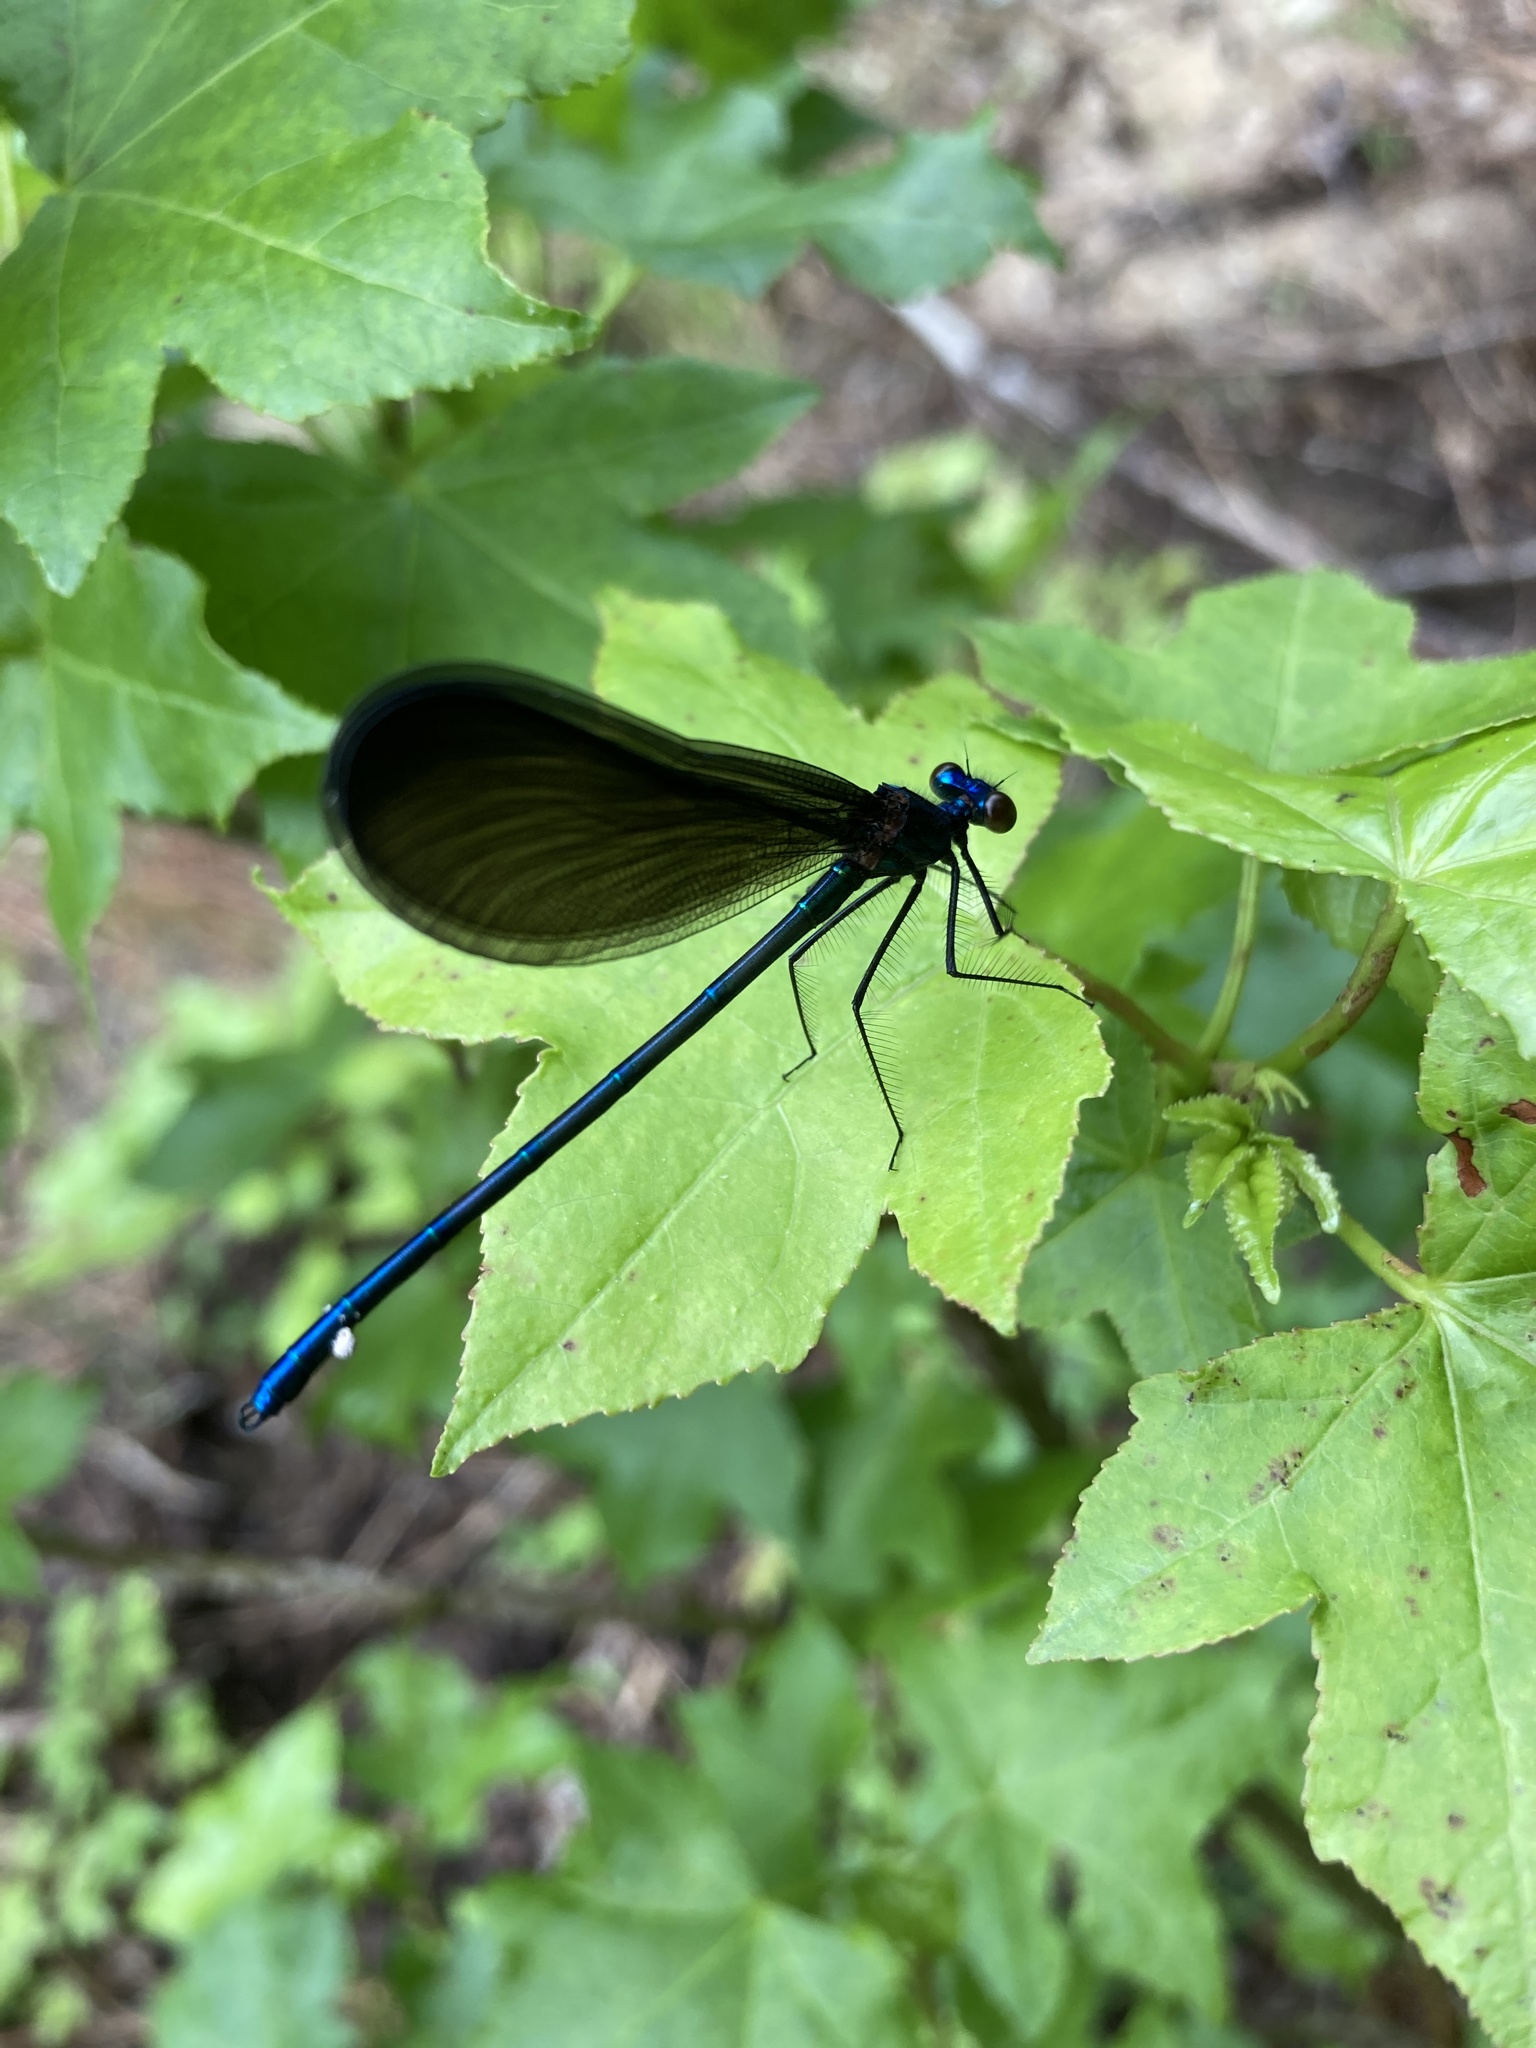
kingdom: Animalia
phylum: Arthropoda
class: Insecta
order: Odonata
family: Calopterygidae
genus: Calopteryx
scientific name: Calopteryx maculata
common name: Ebony jewelwing
